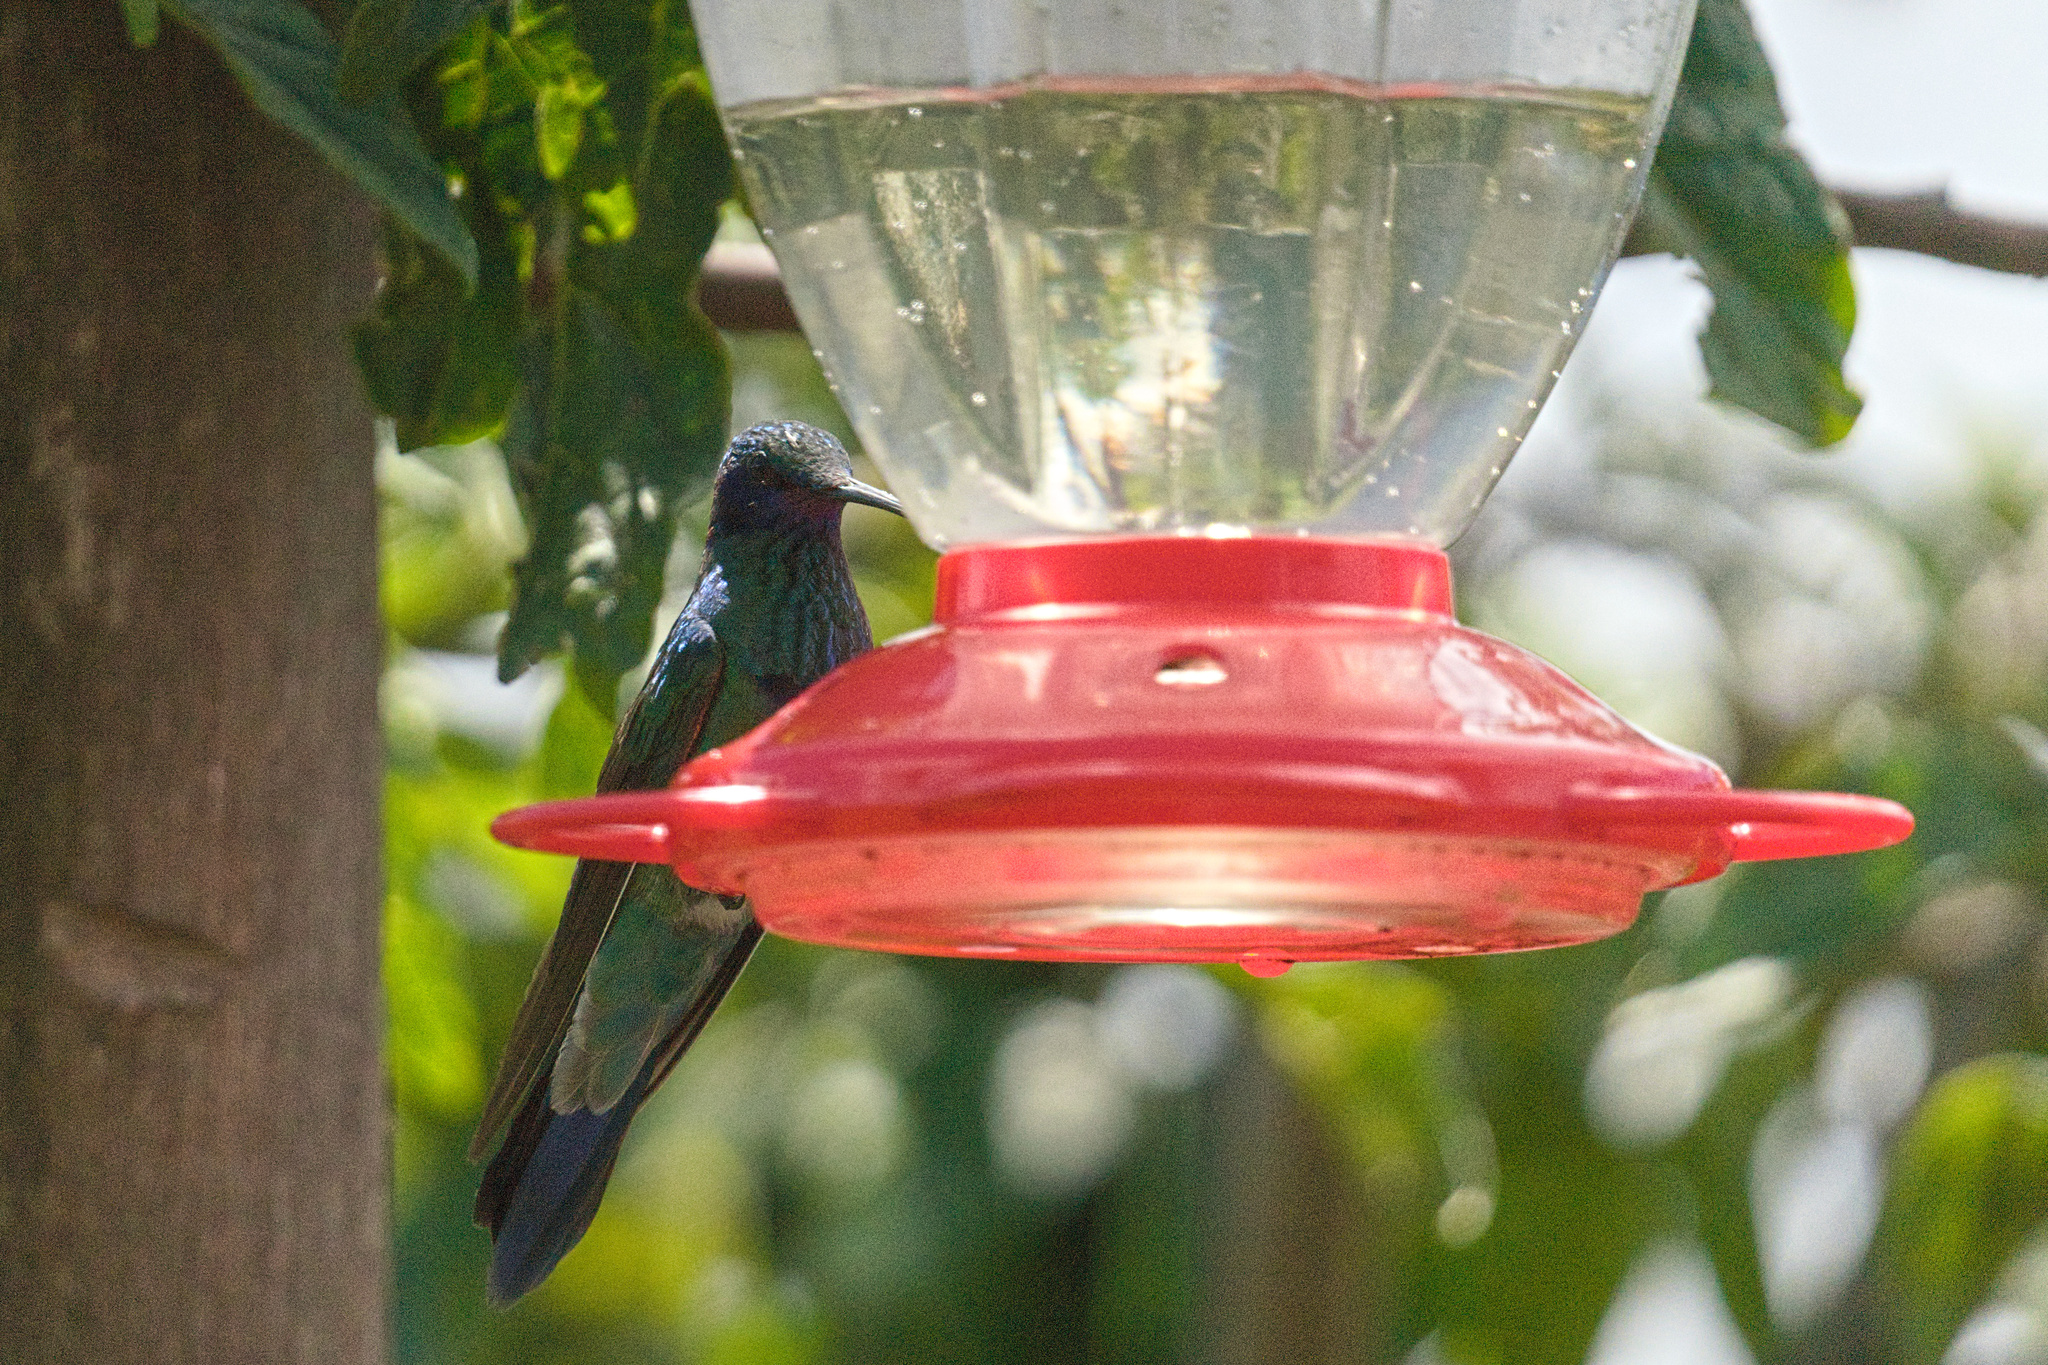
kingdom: Animalia
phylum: Chordata
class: Aves
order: Apodiformes
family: Trochilidae
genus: Colibri
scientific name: Colibri coruscans
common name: Sparkling violetear
